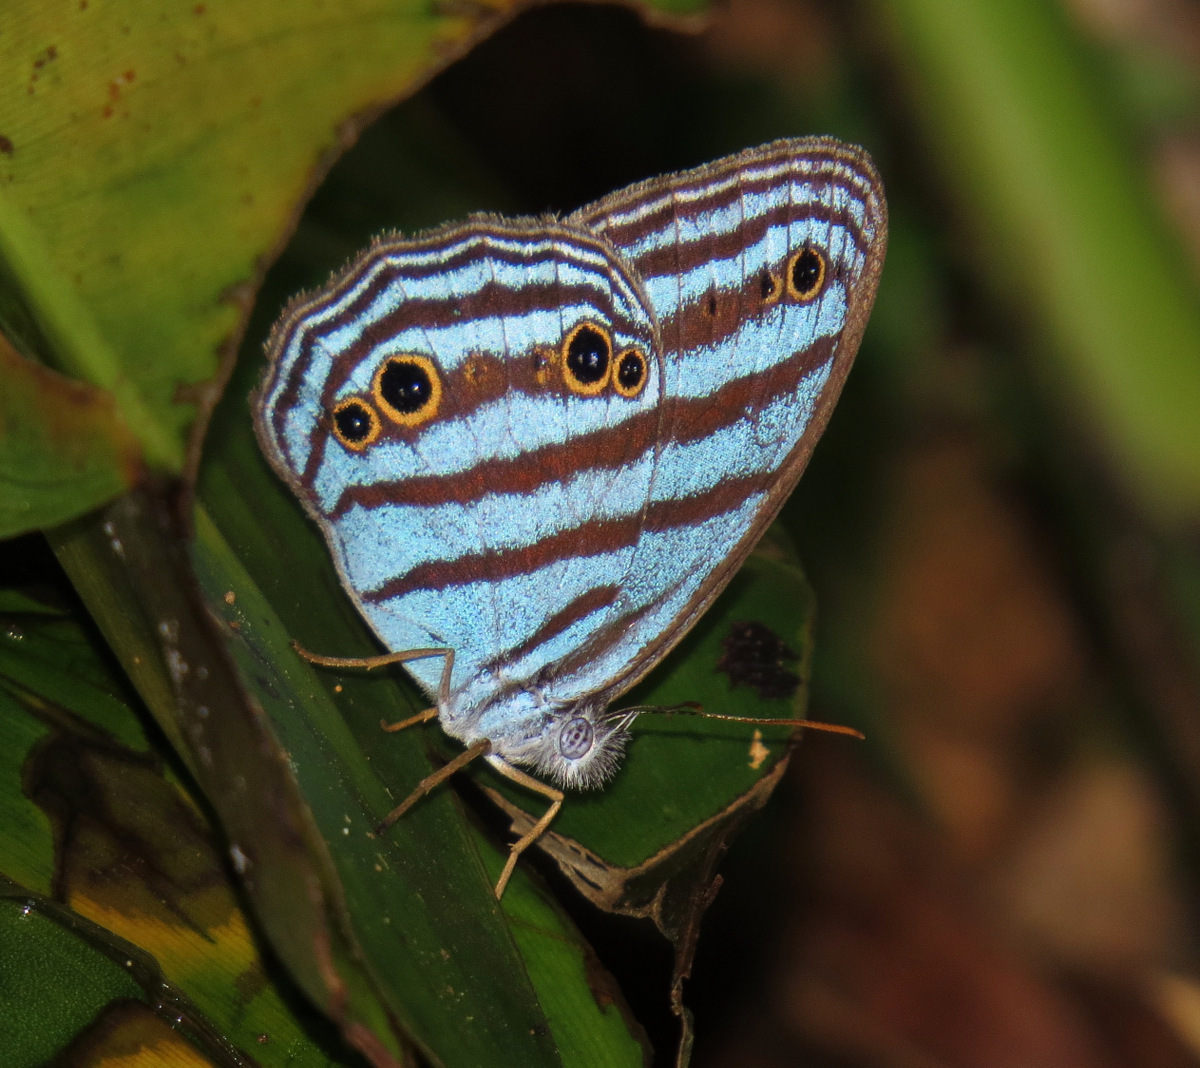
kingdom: Animalia
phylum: Arthropoda
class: Insecta
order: Lepidoptera
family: Nymphalidae
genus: Cepheuptychia
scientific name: Cepheuptychia cephus
